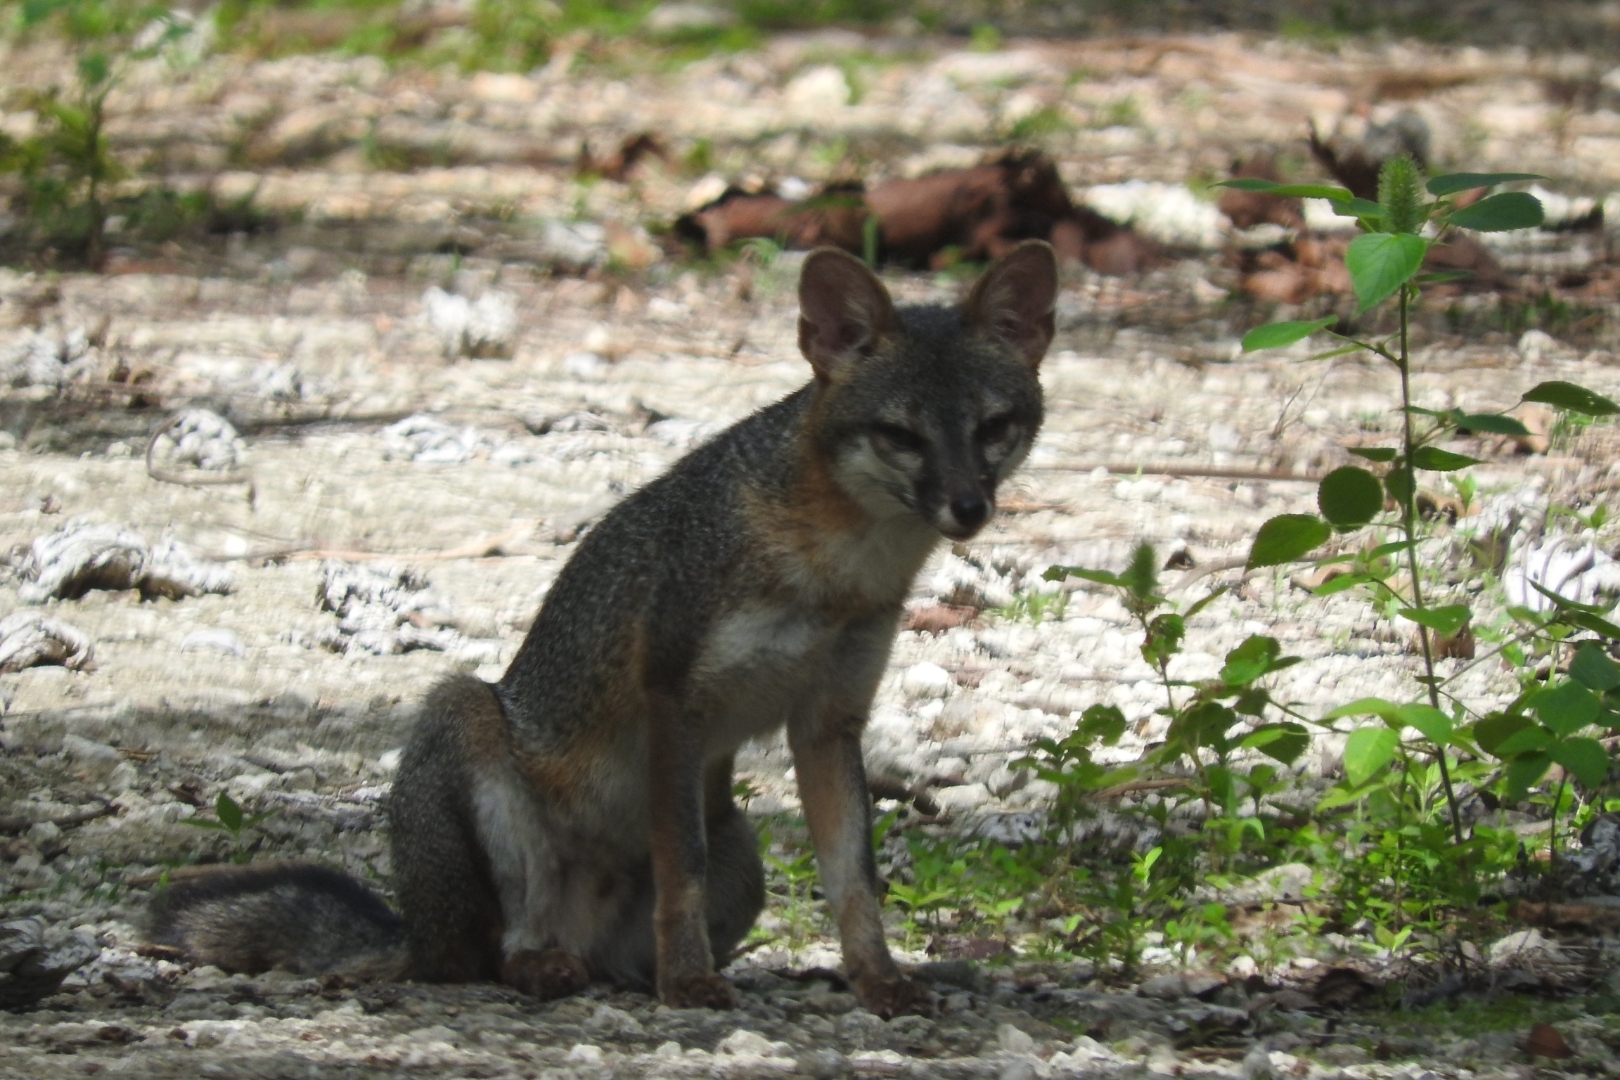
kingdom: Animalia
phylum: Chordata
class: Mammalia
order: Carnivora
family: Canidae
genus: Urocyon
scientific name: Urocyon cinereoargenteus
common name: Gray fox
